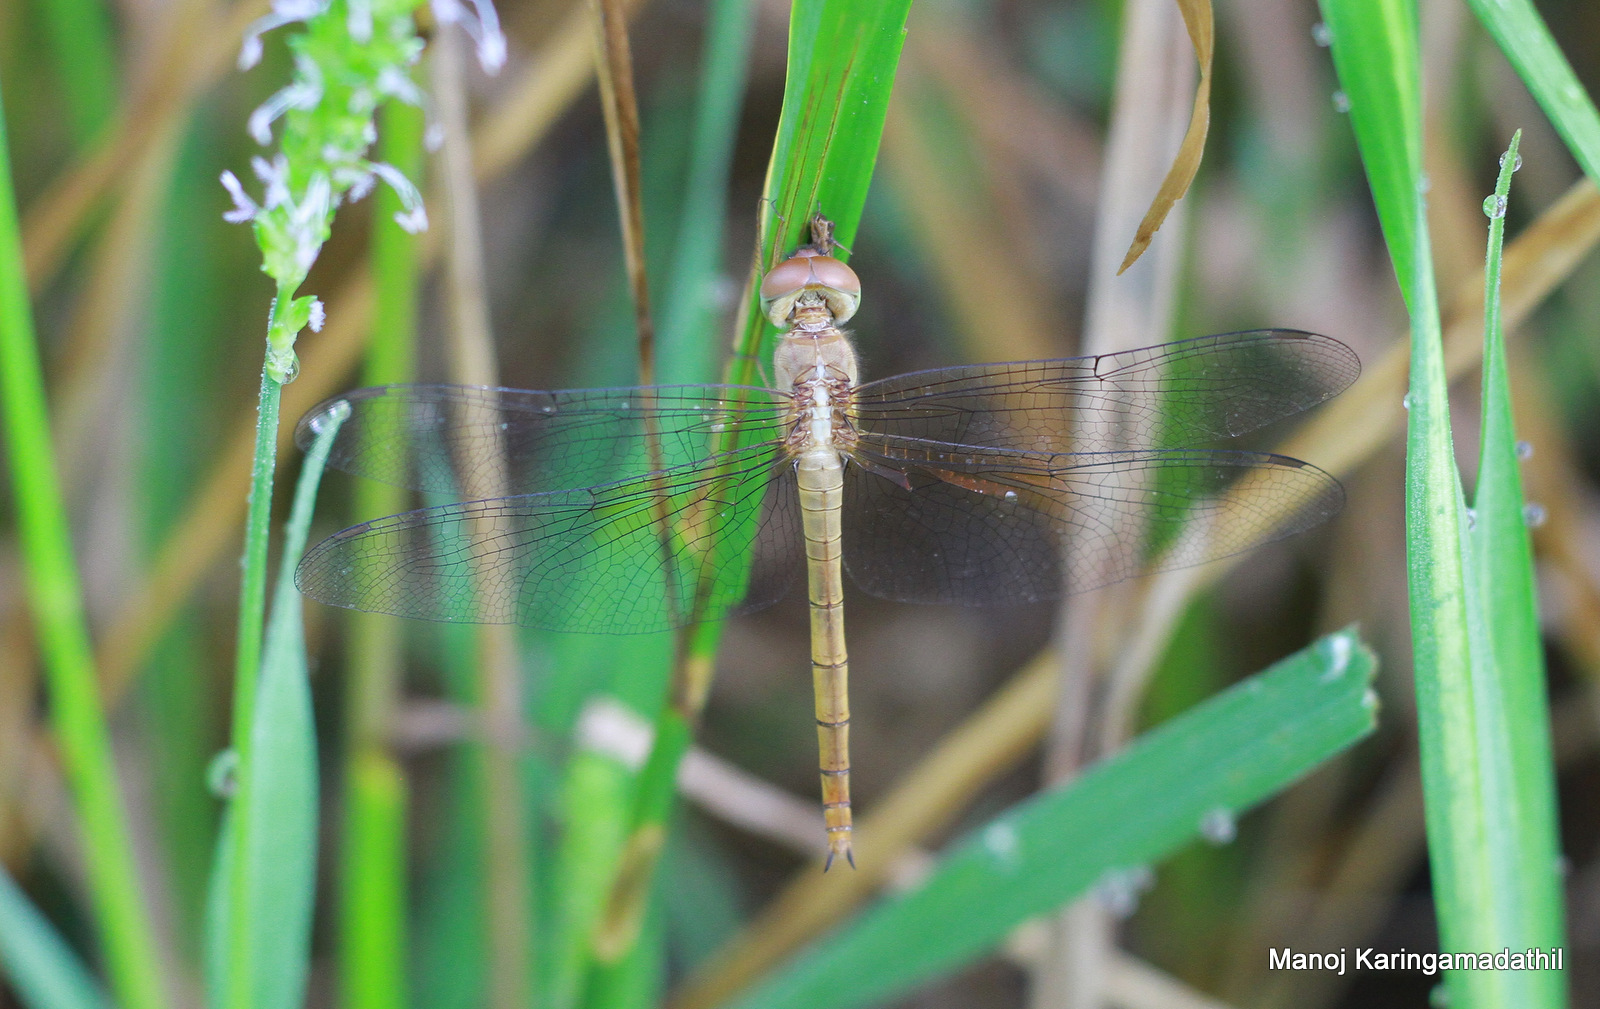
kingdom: Animalia
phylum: Arthropoda
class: Insecta
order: Odonata
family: Libellulidae
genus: Tholymis
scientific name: Tholymis tillarga
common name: Coral-tailed cloud wing
